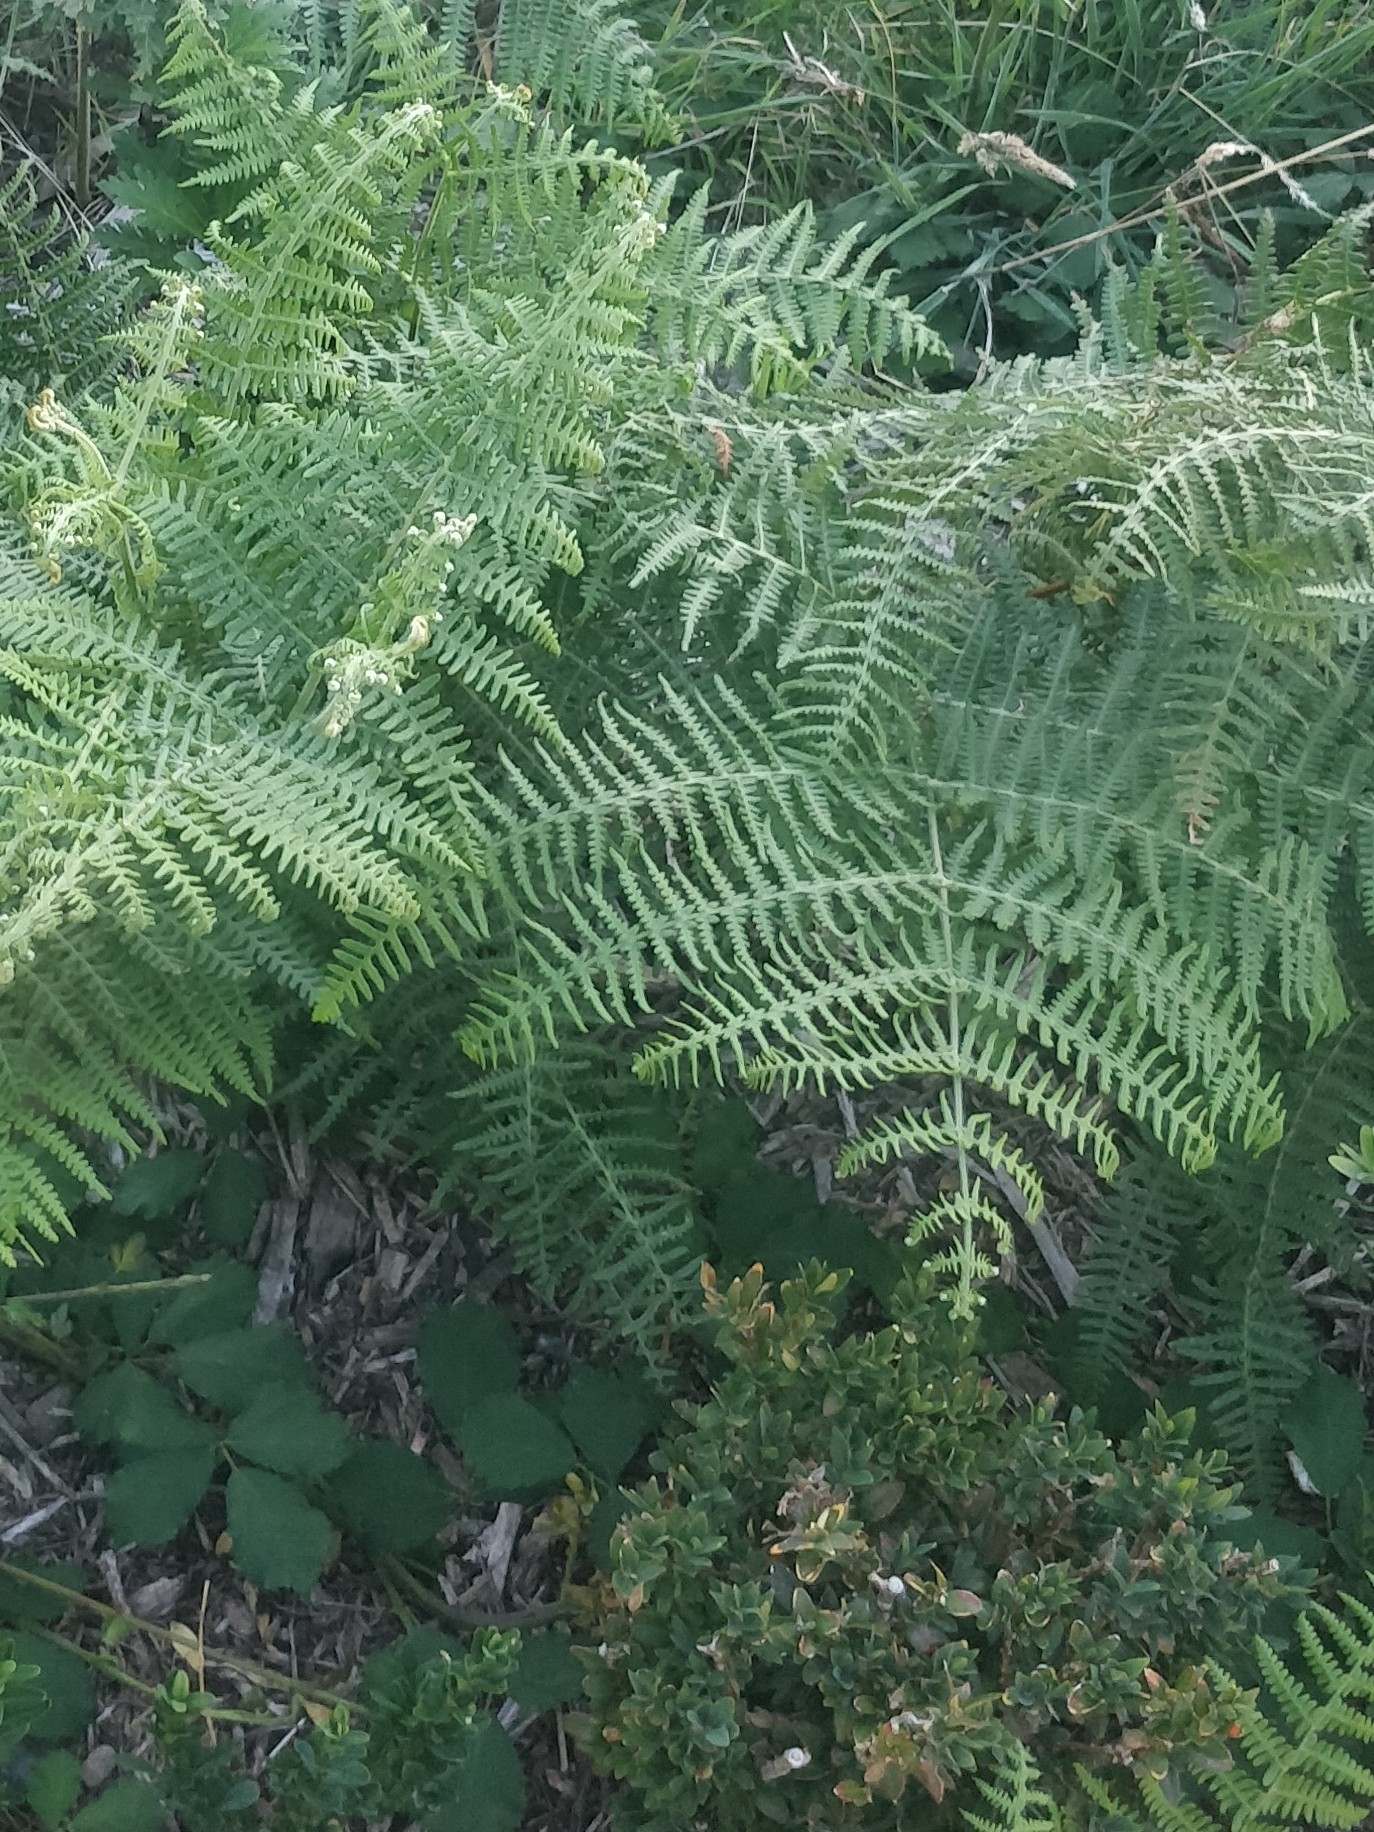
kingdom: Plantae
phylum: Tracheophyta
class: Polypodiopsida
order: Polypodiales
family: Dennstaedtiaceae
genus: Pteridium
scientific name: Pteridium aquilinum
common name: Bracken
